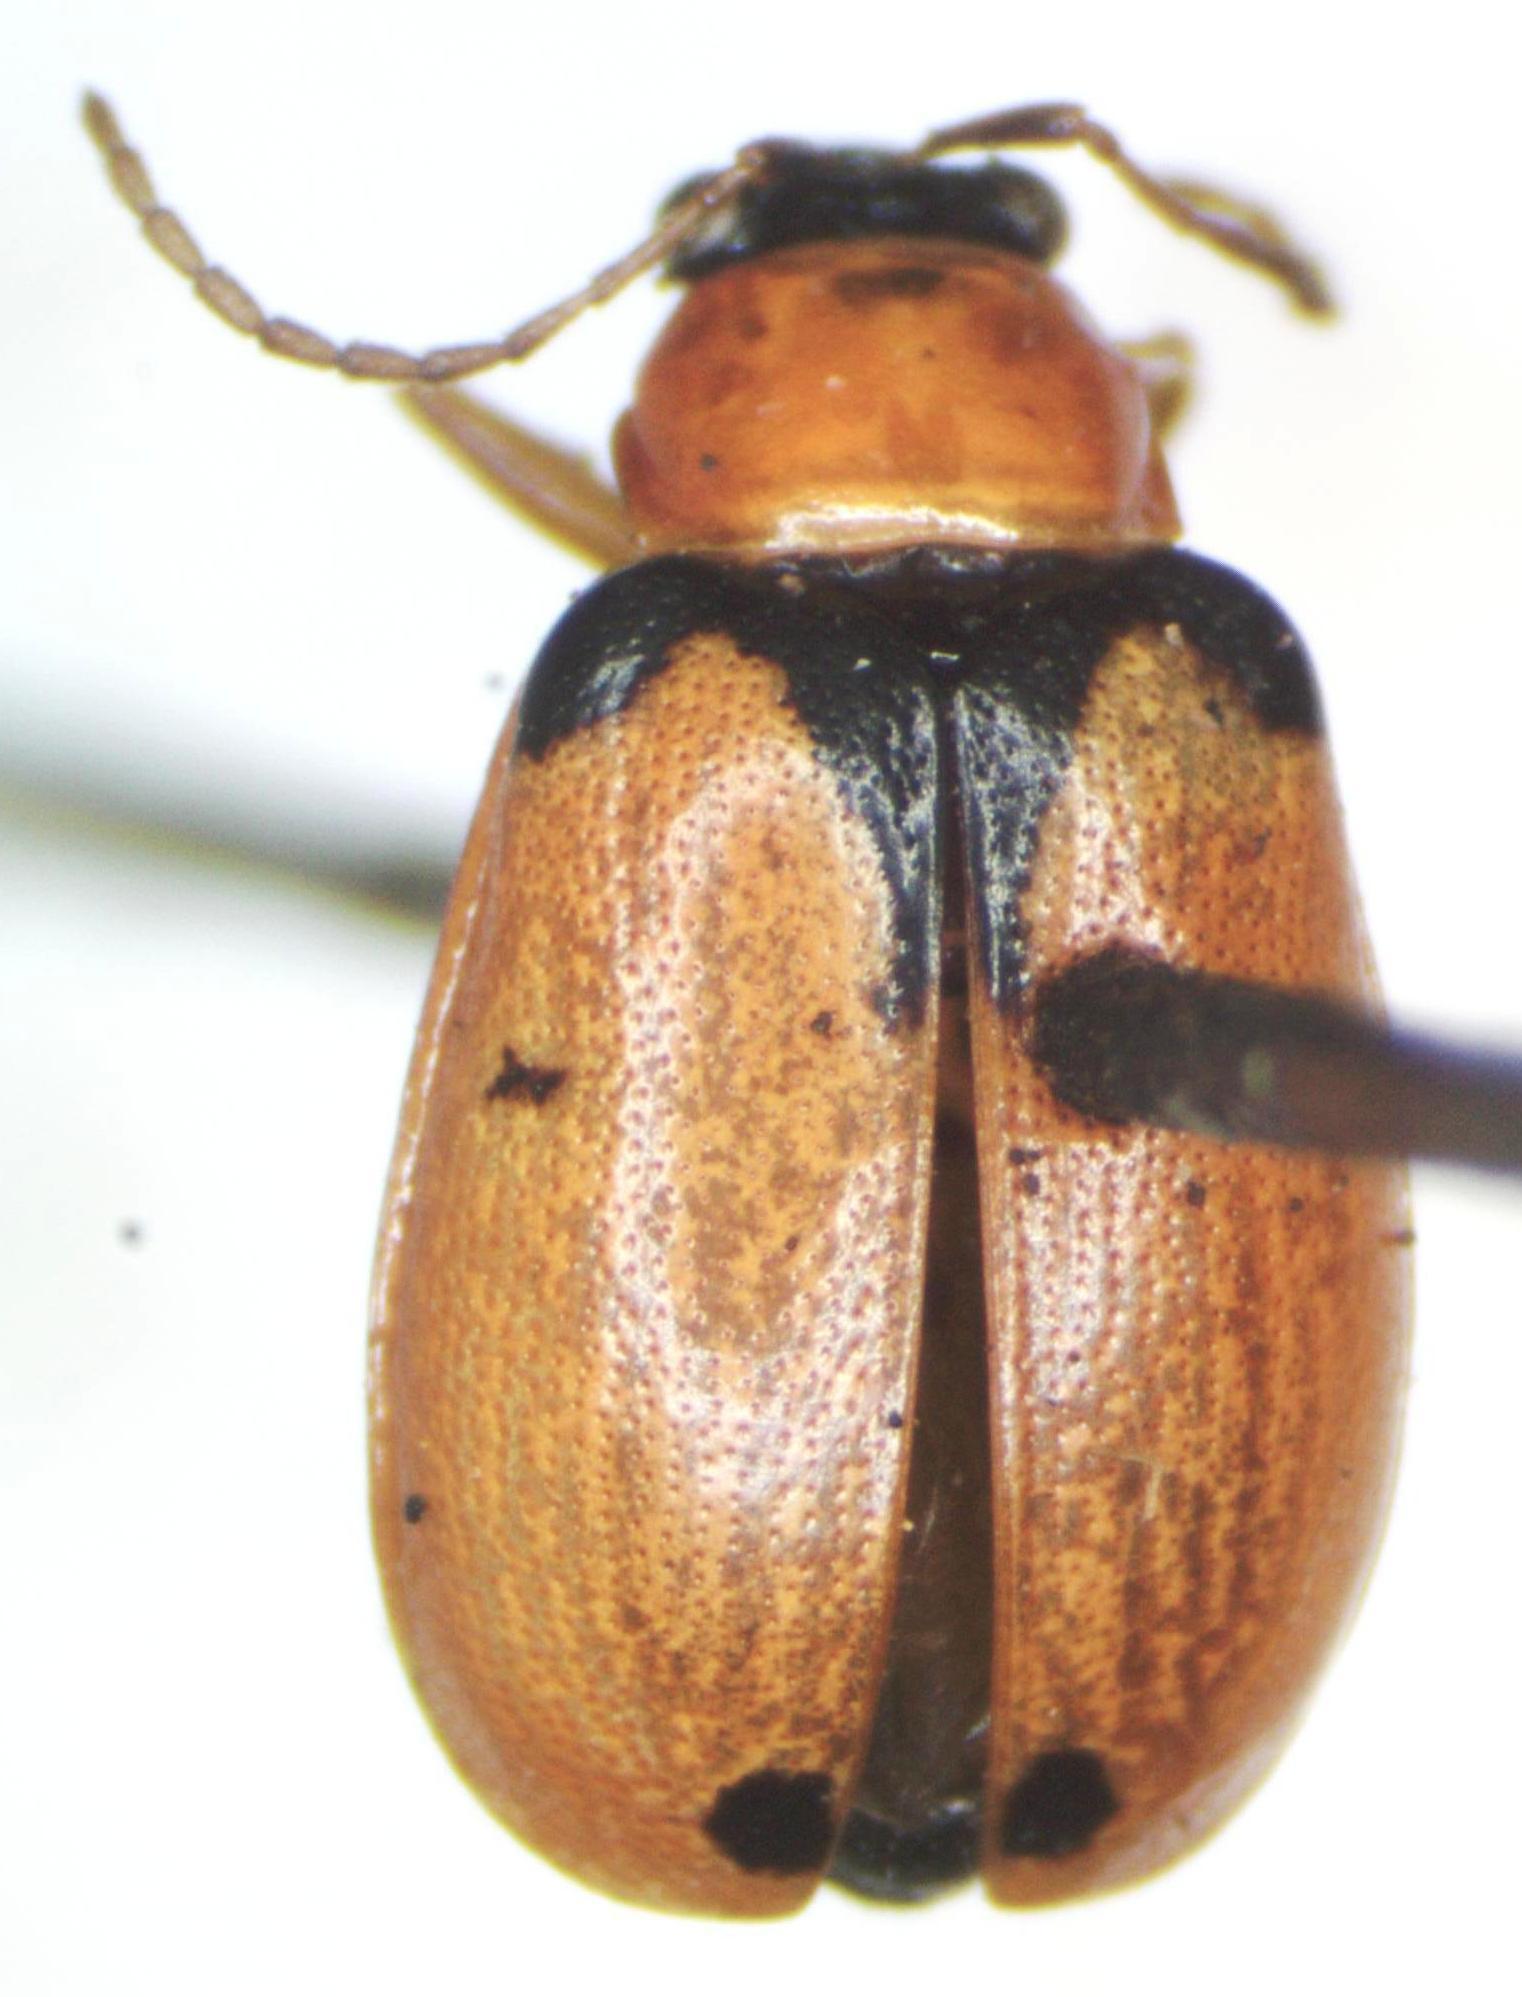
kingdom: Animalia
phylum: Arthropoda
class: Insecta
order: Coleoptera
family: Chrysomelidae
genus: Cerotoma
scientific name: Cerotoma atrofasciata
